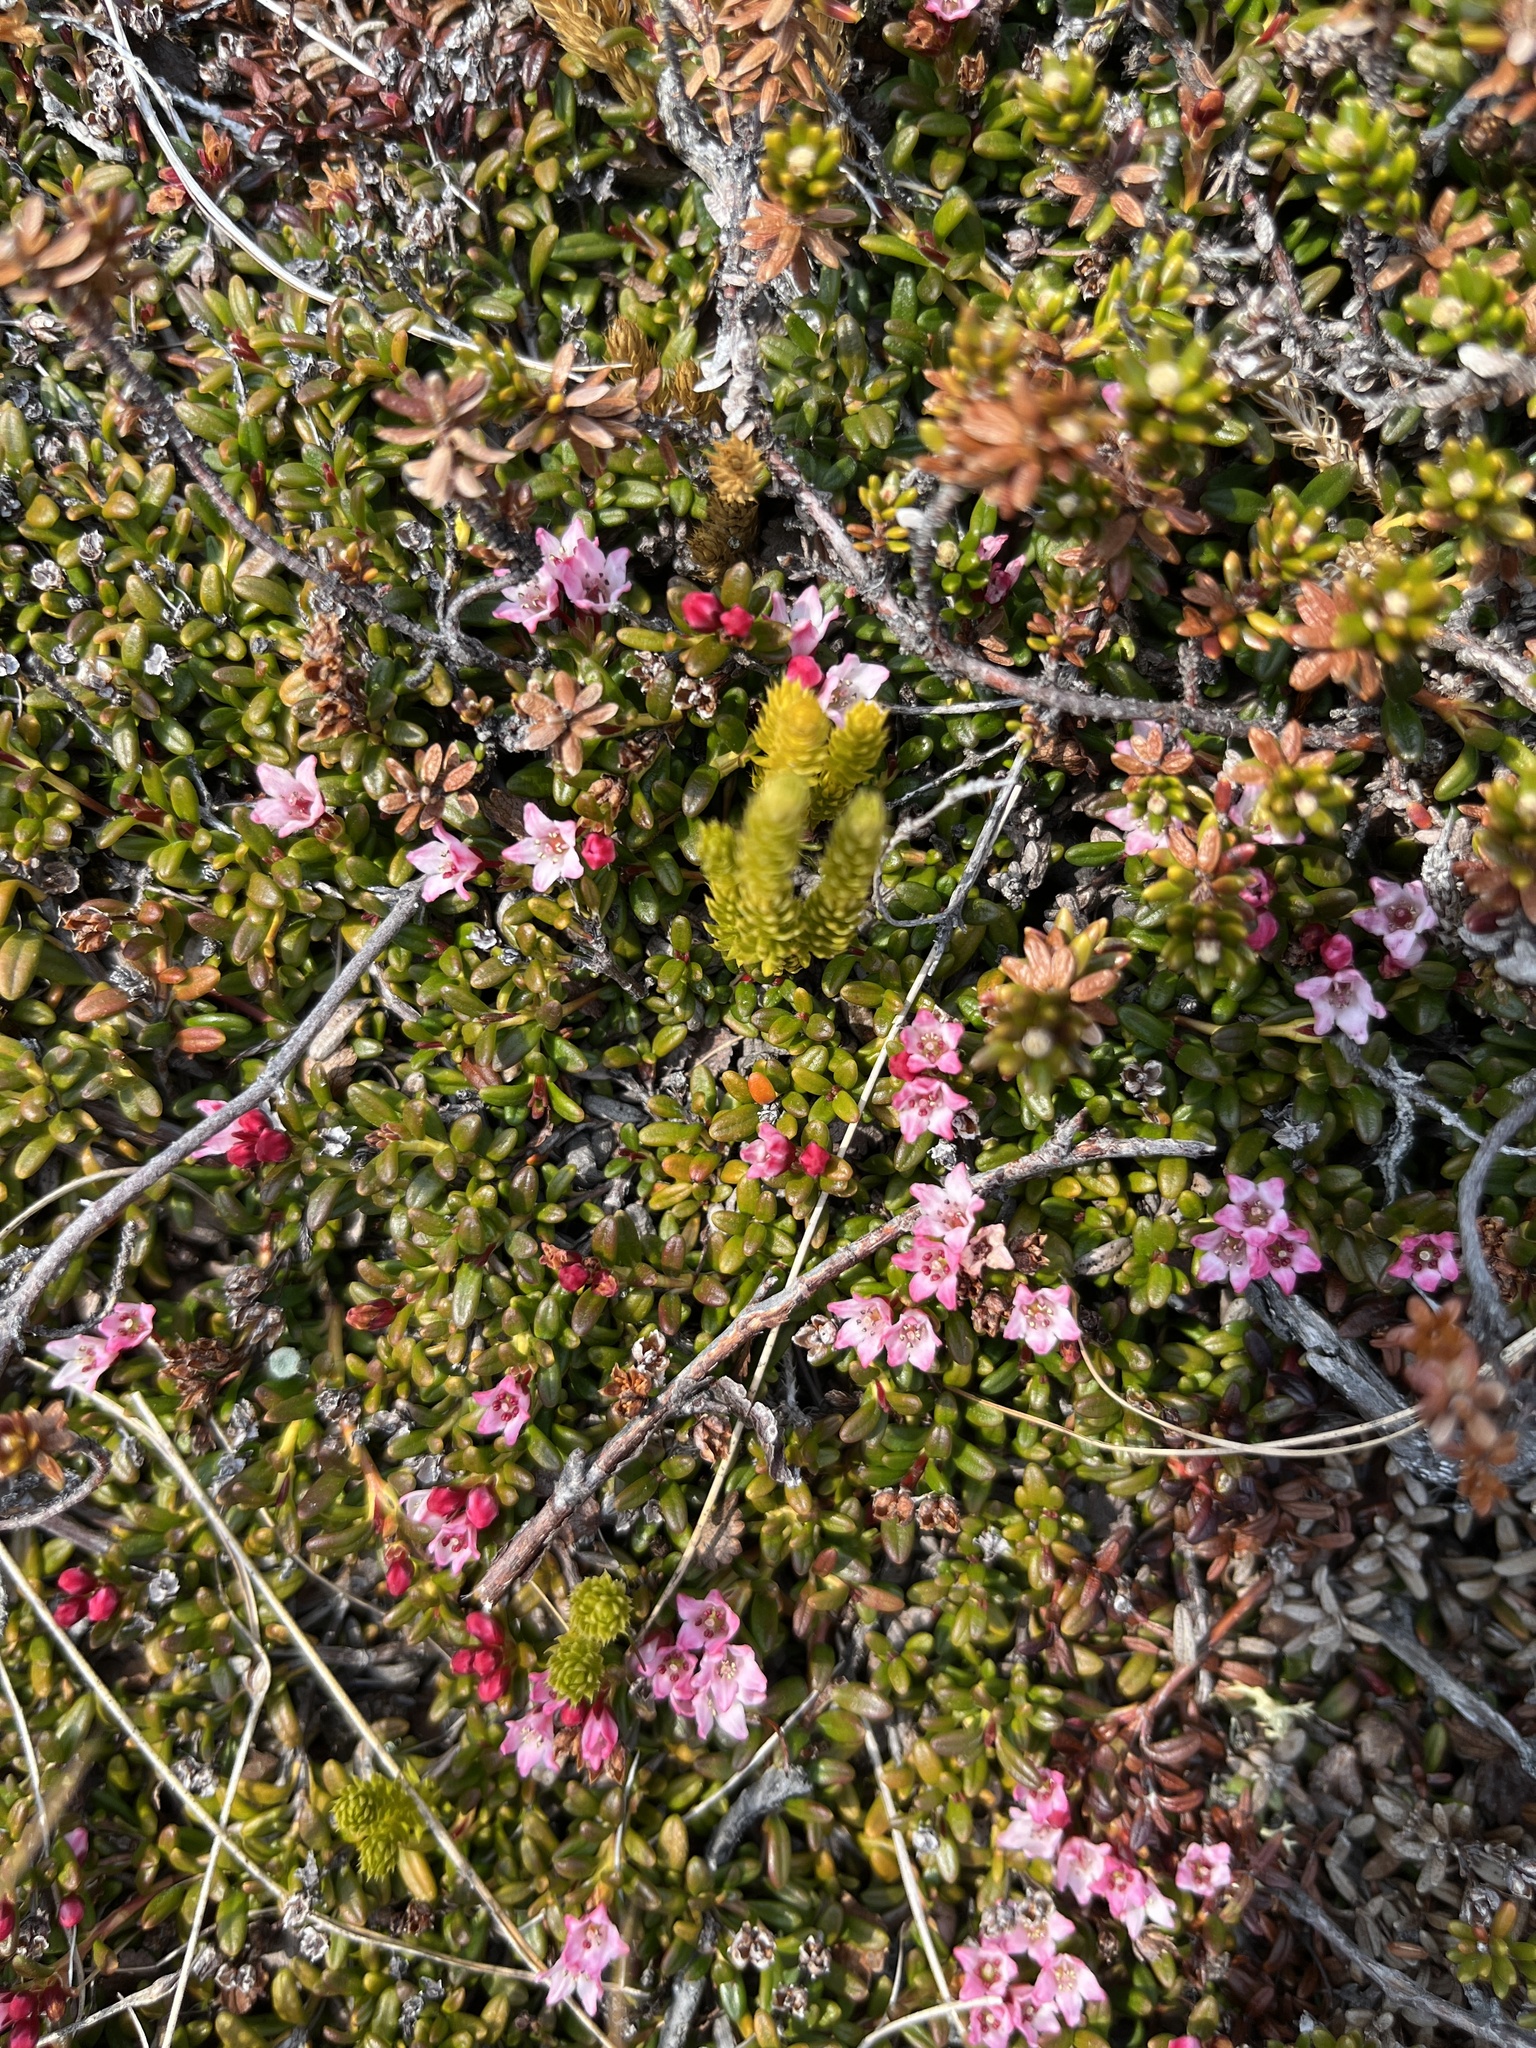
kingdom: Plantae
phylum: Tracheophyta
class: Magnoliopsida
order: Ericales
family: Ericaceae
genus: Kalmia
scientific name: Kalmia procumbens
